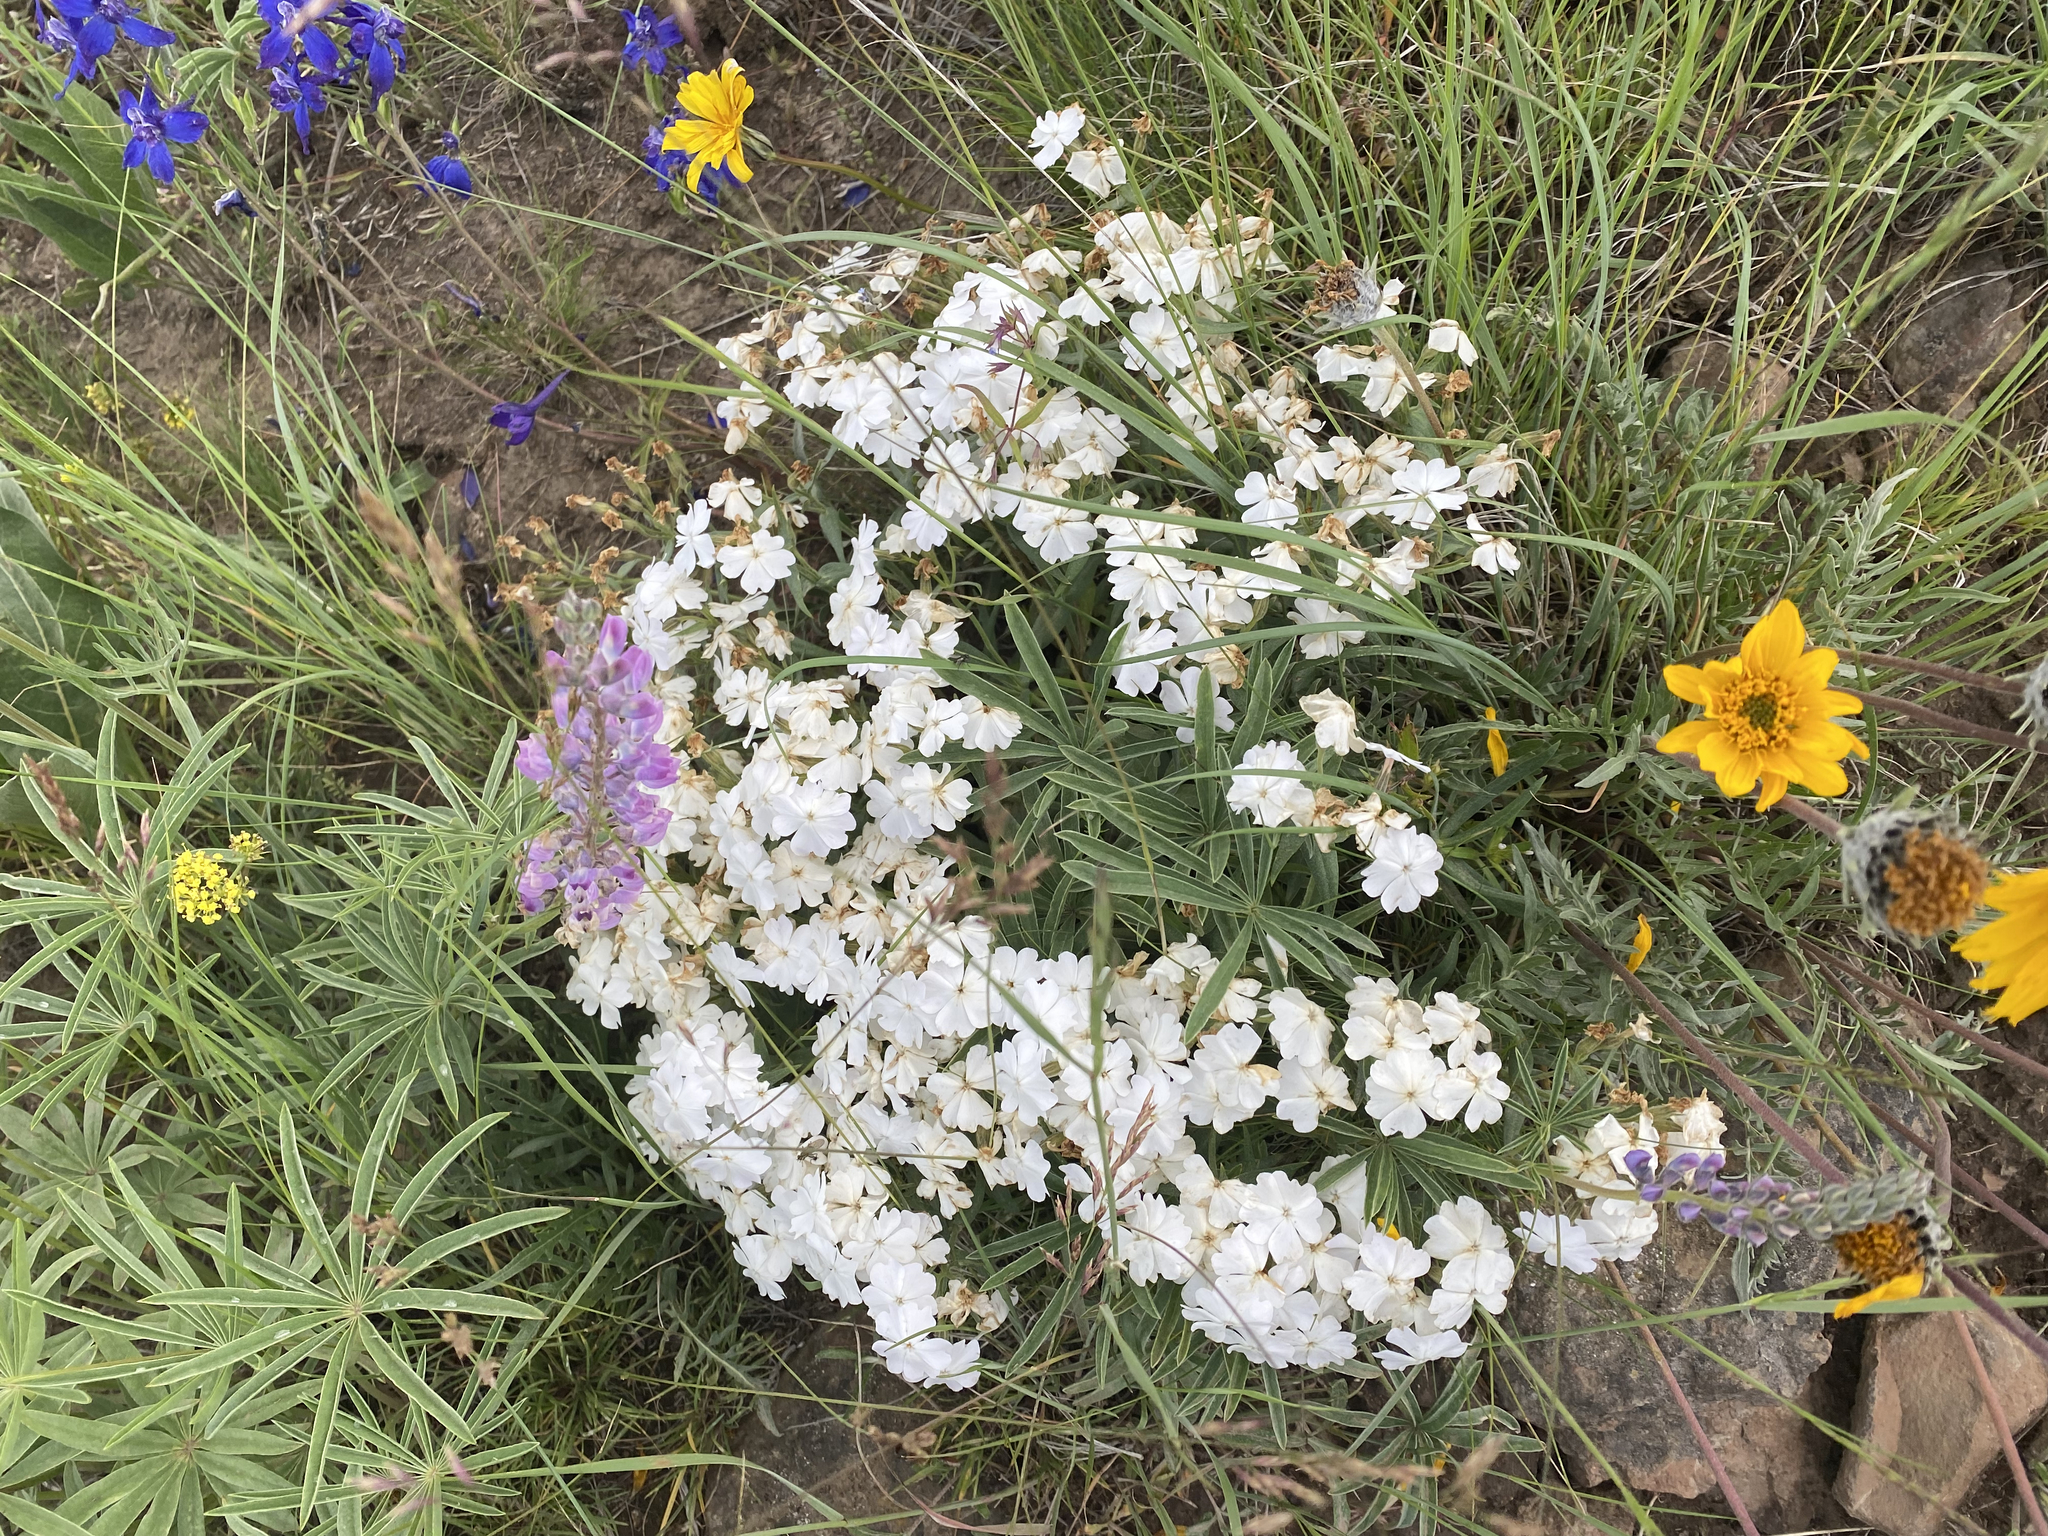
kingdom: Plantae
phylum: Tracheophyta
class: Magnoliopsida
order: Ericales
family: Polemoniaceae
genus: Phlox
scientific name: Phlox speciosa
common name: Bush phlox
